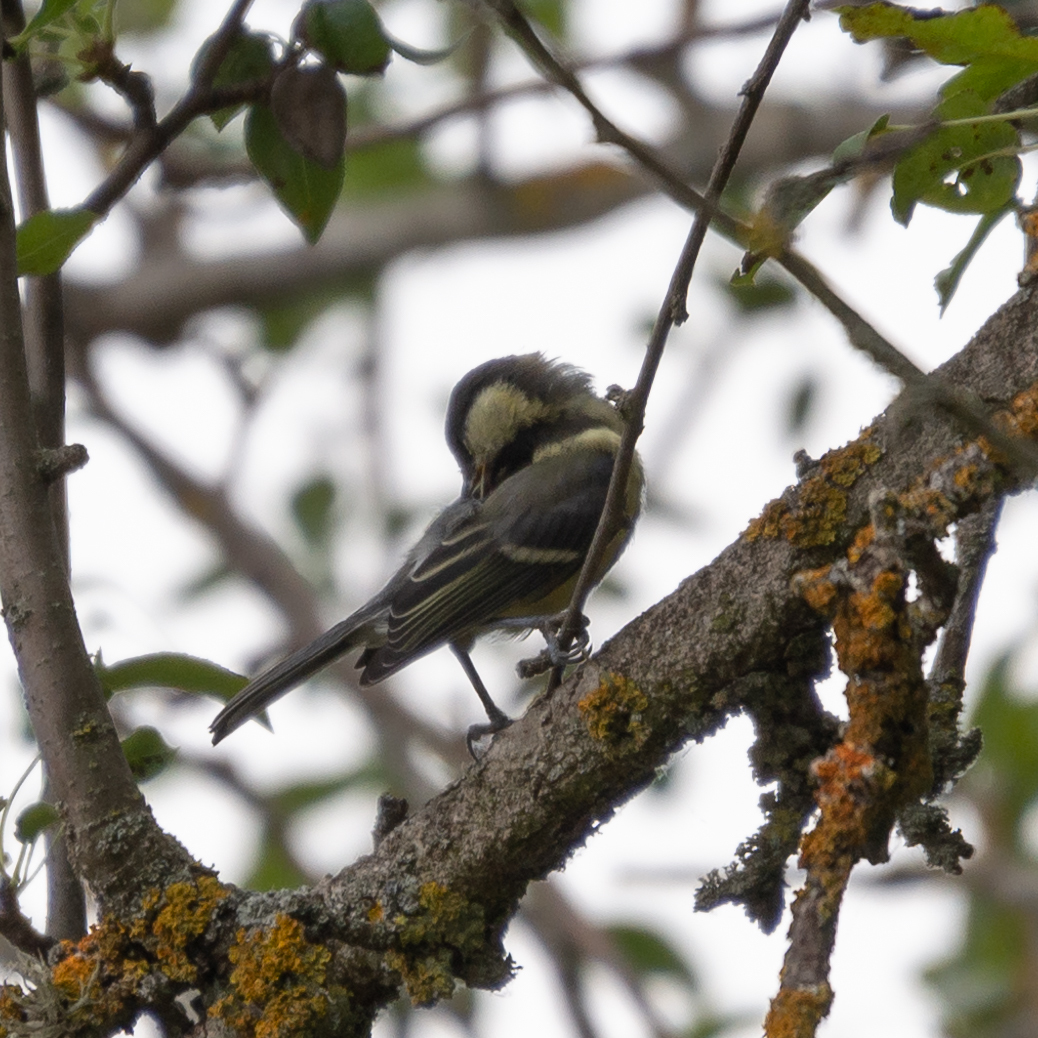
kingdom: Animalia
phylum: Chordata
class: Aves
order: Passeriformes
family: Paridae
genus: Parus
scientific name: Parus major
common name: Great tit
